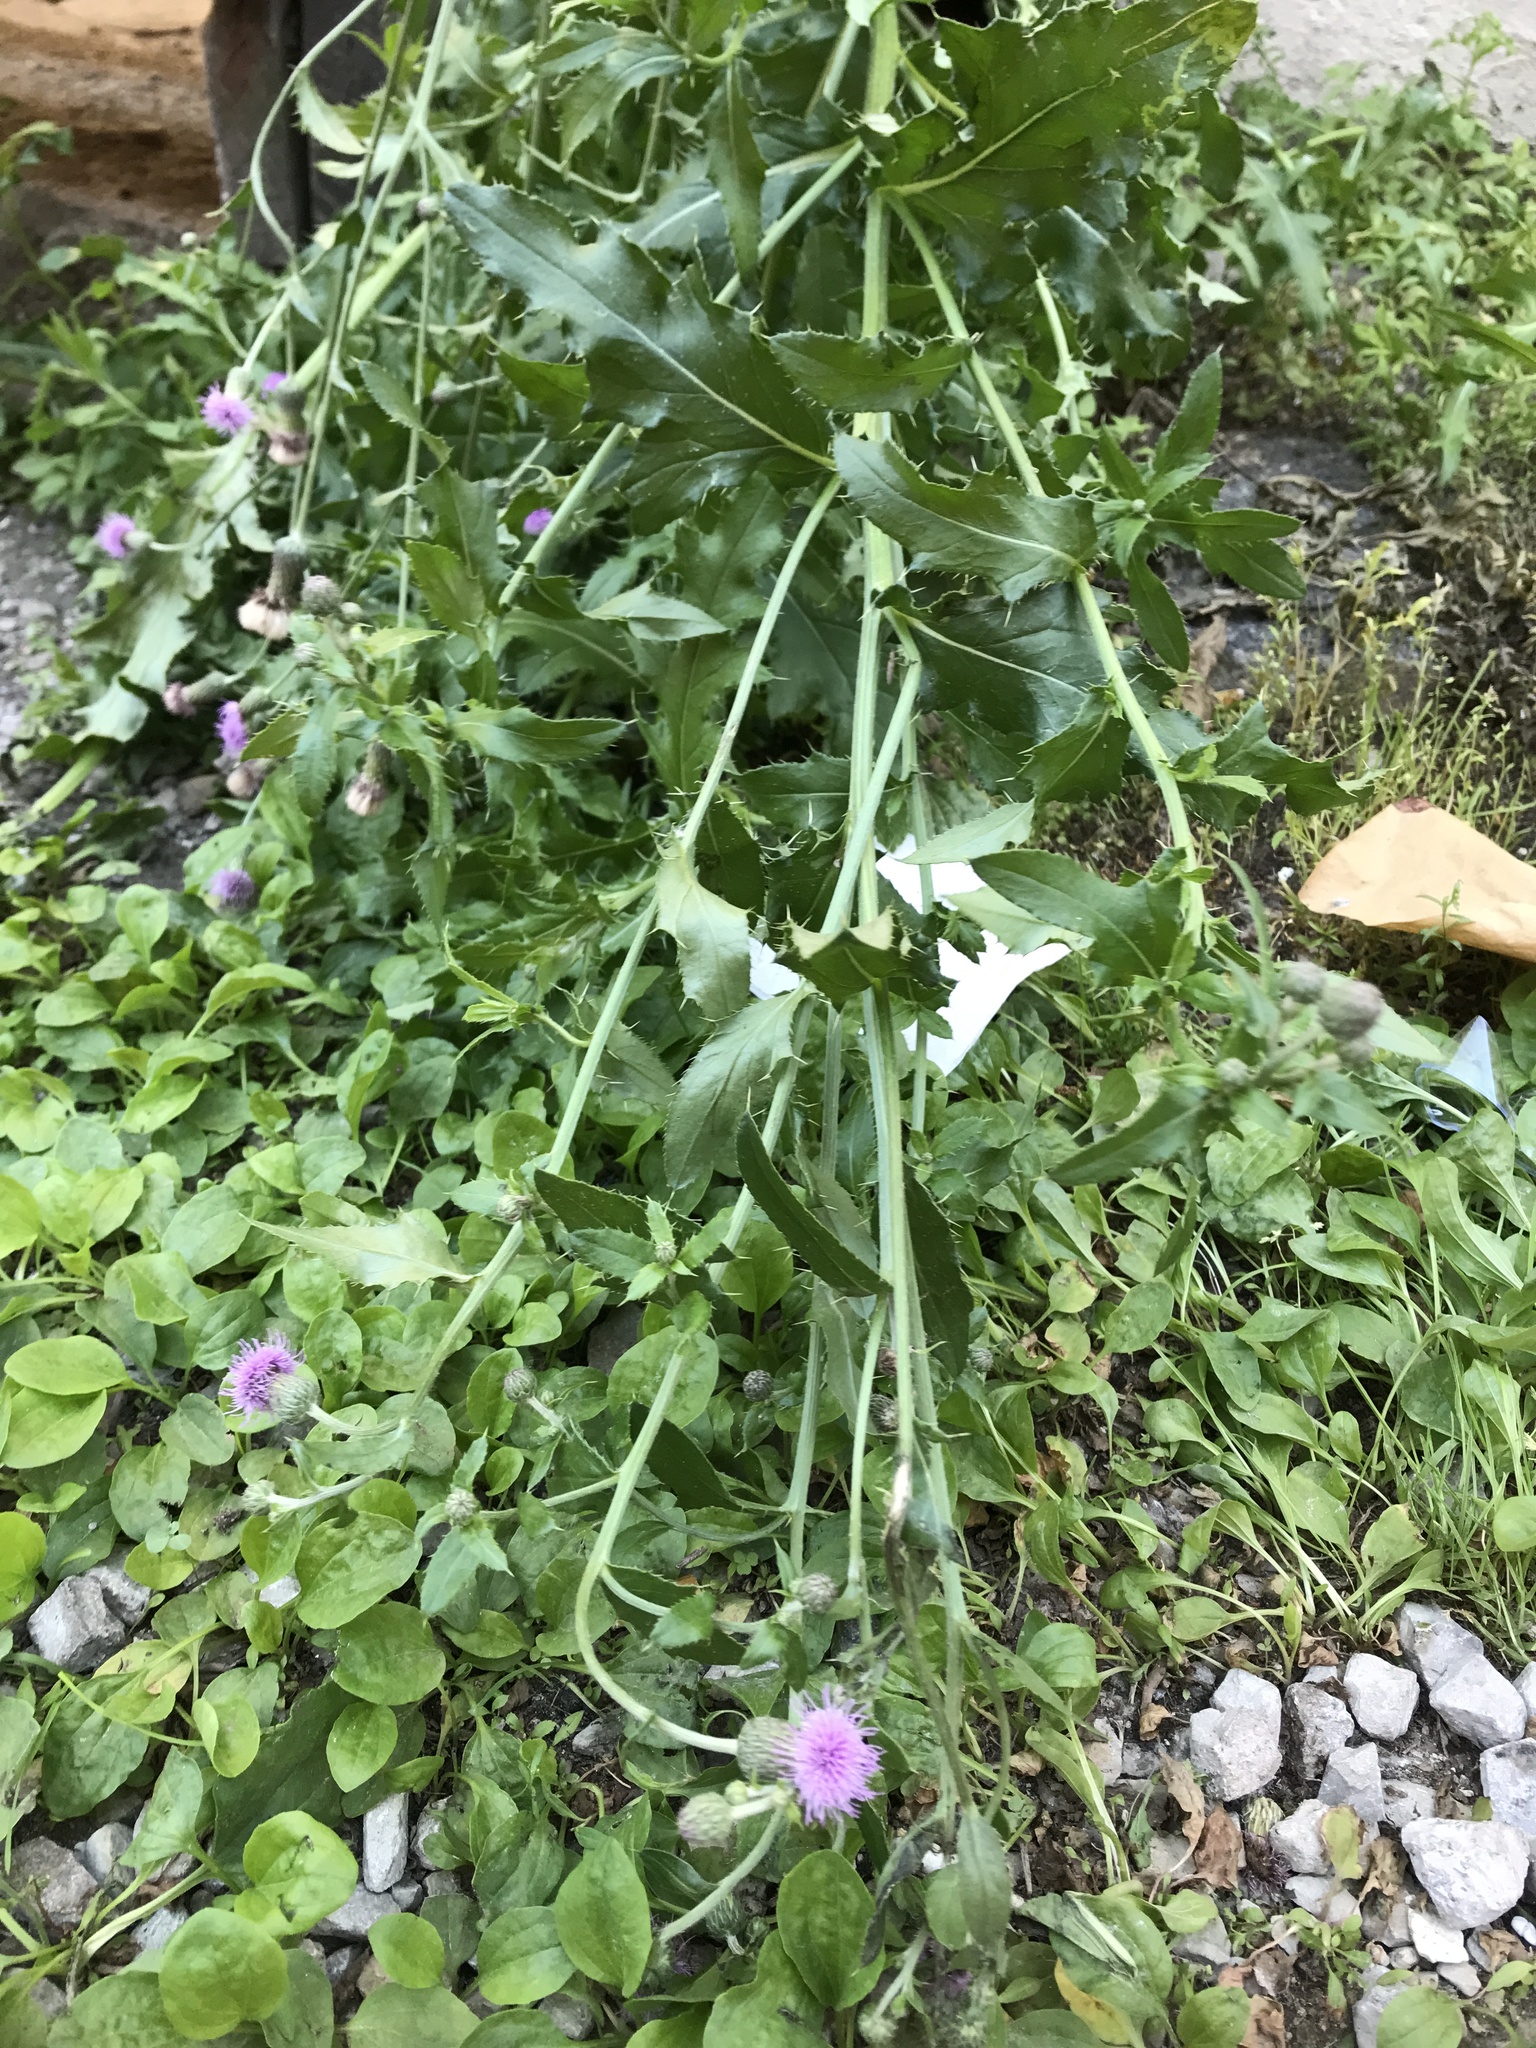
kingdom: Plantae
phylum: Tracheophyta
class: Magnoliopsida
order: Asterales
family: Asteraceae
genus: Cirsium
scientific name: Cirsium arvense
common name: Creeping thistle
